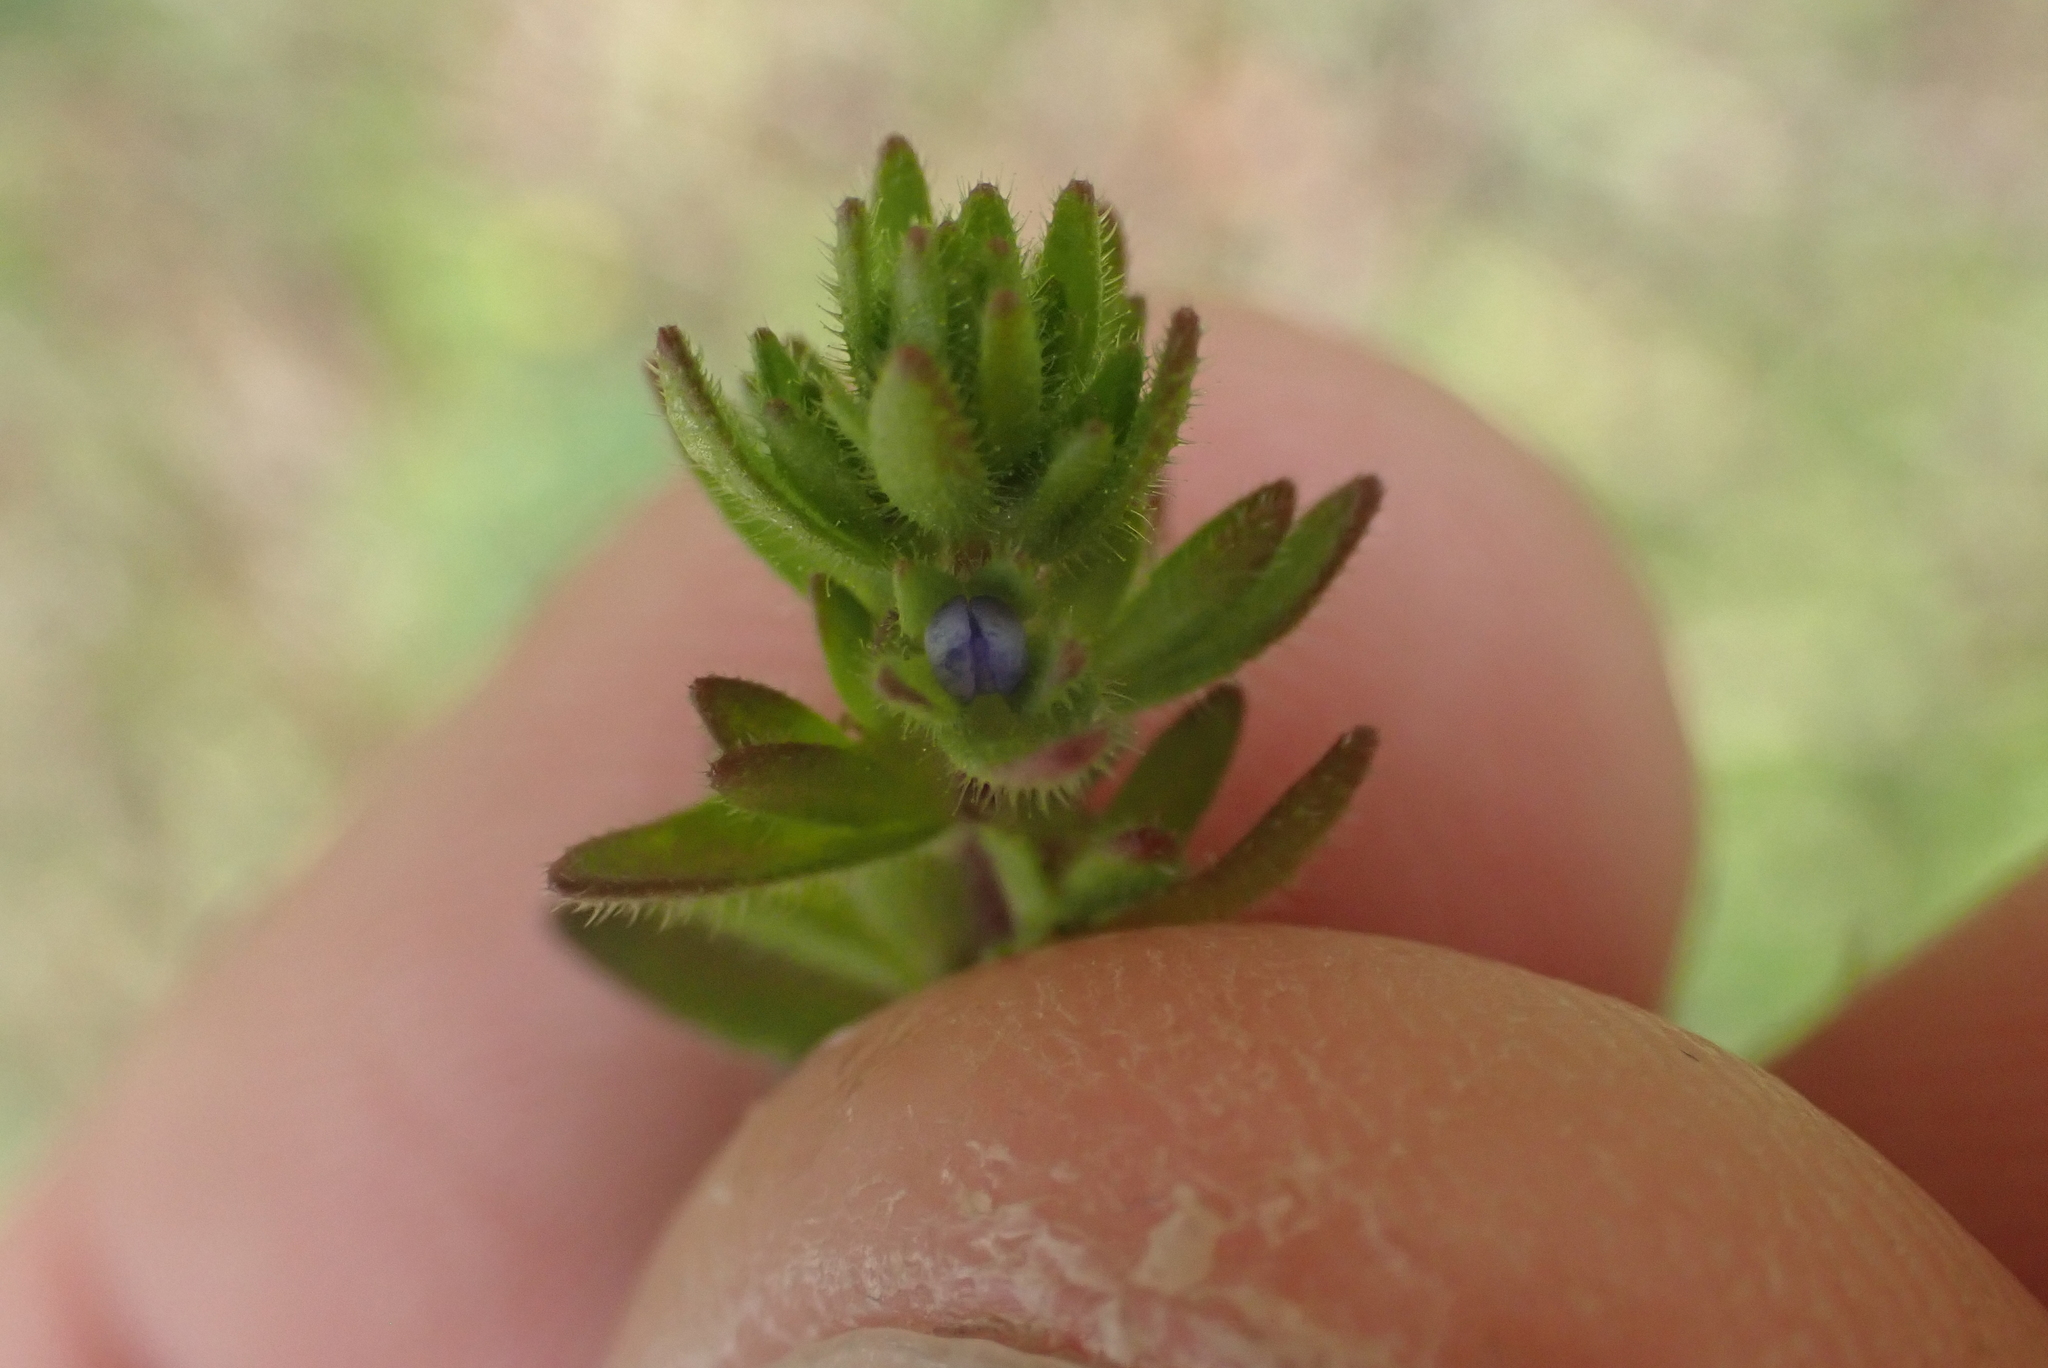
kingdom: Plantae
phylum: Tracheophyta
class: Magnoliopsida
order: Lamiales
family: Plantaginaceae
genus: Veronica
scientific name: Veronica arvensis
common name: Corn speedwell
